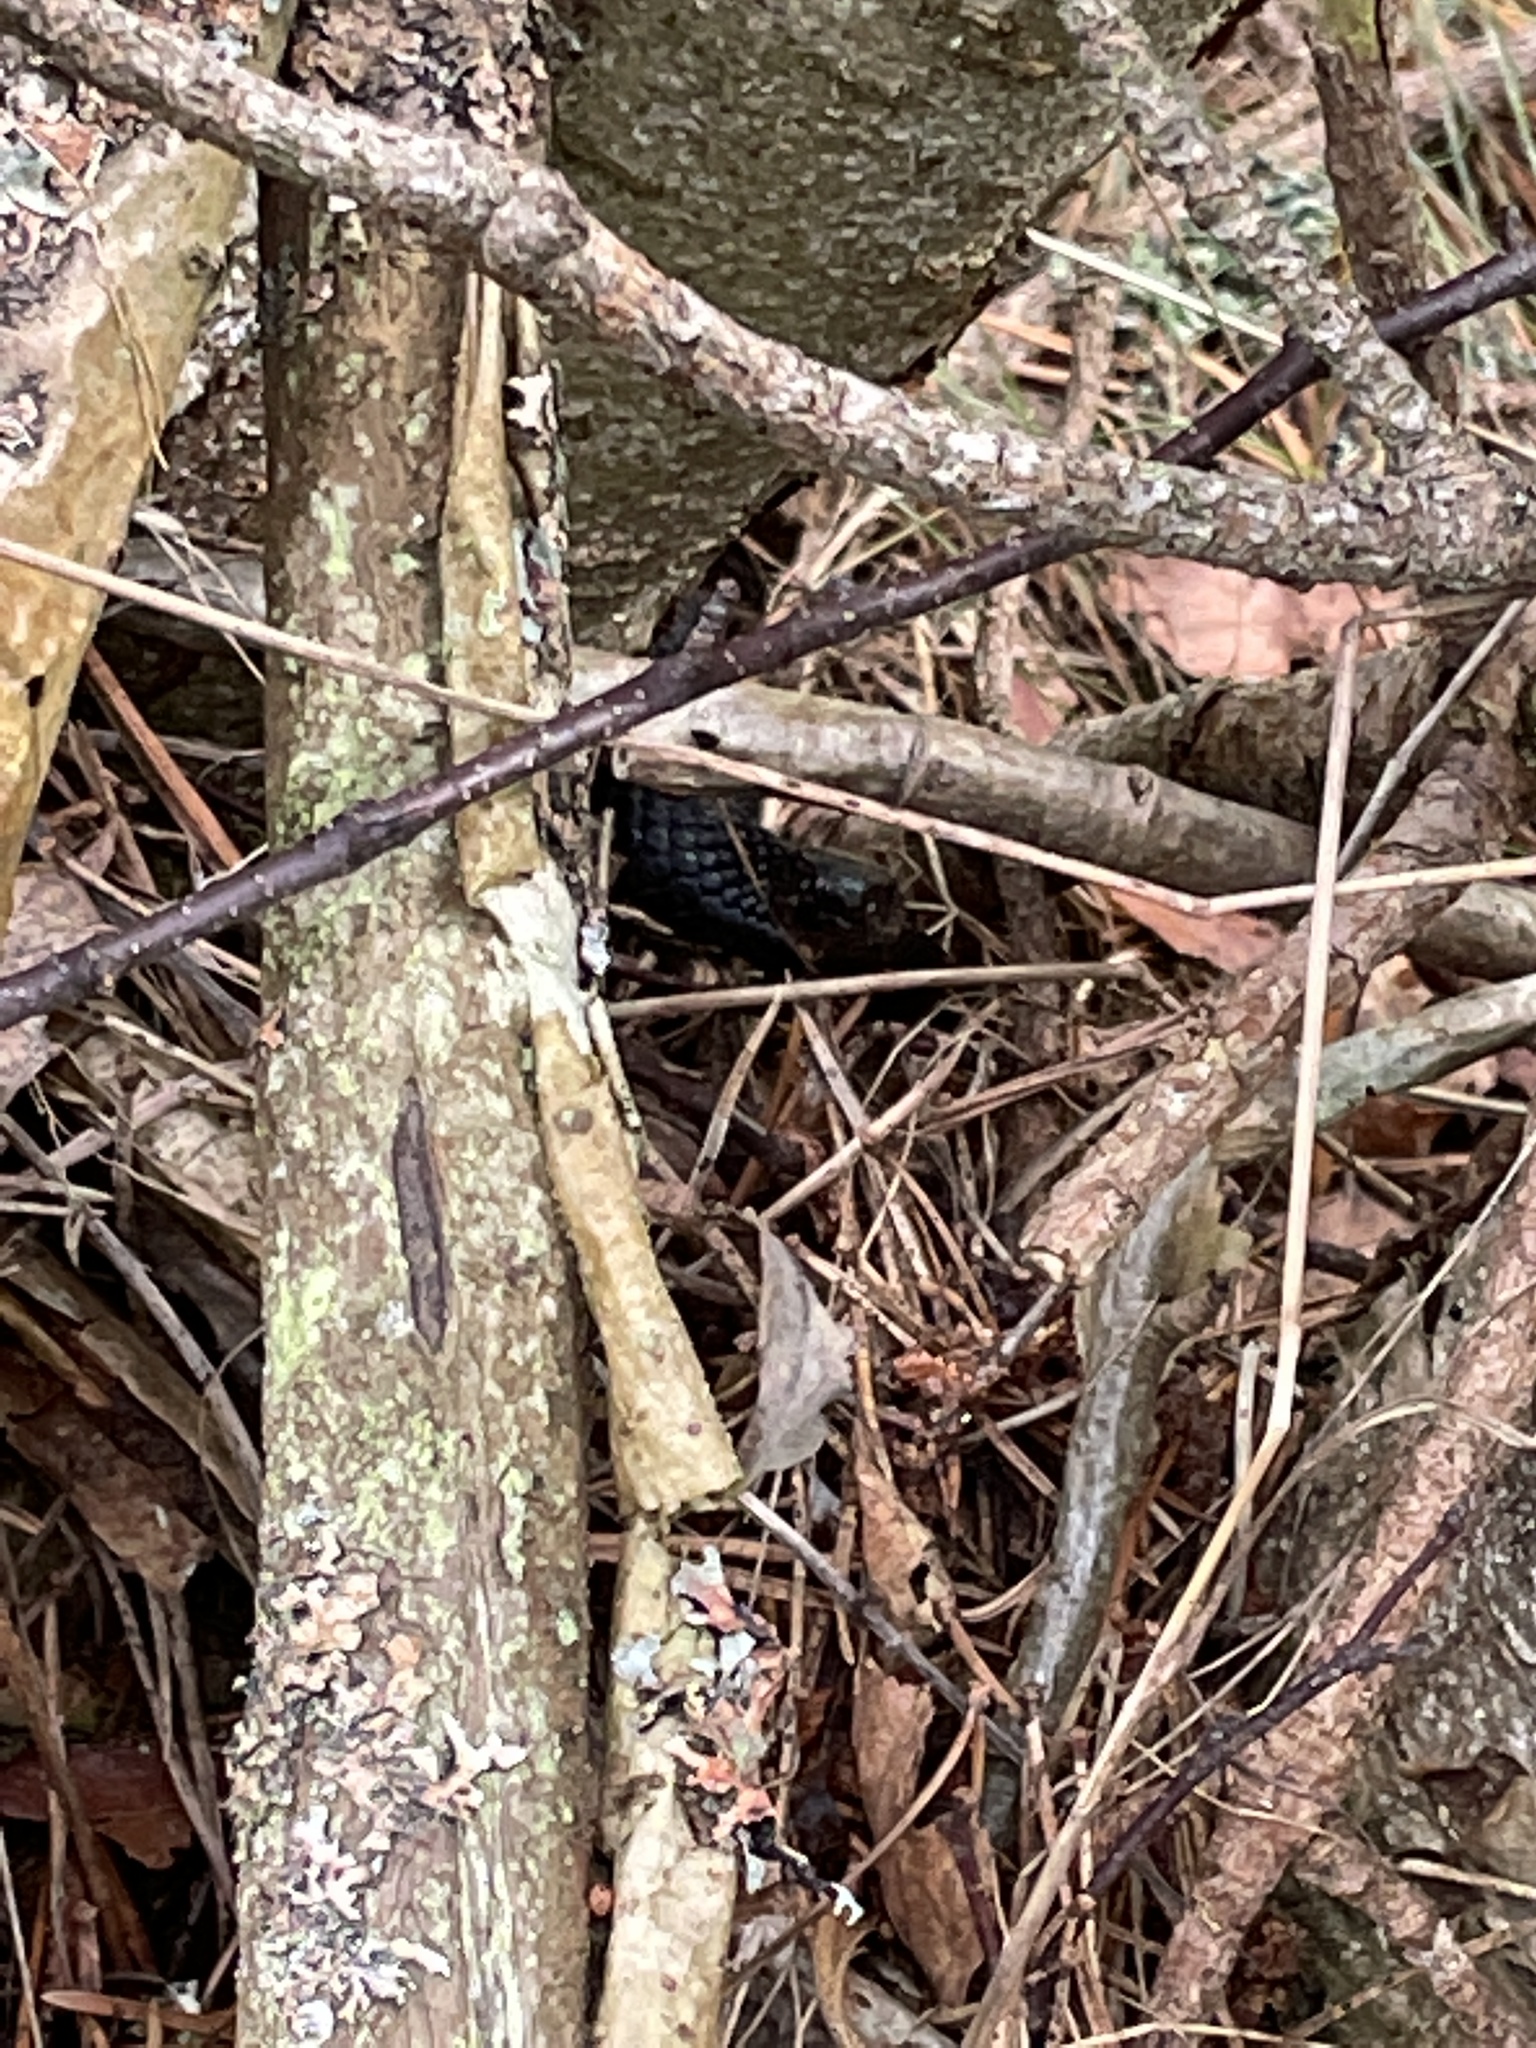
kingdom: Animalia
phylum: Chordata
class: Squamata
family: Viperidae
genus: Vipera
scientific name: Vipera berus
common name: Adder
